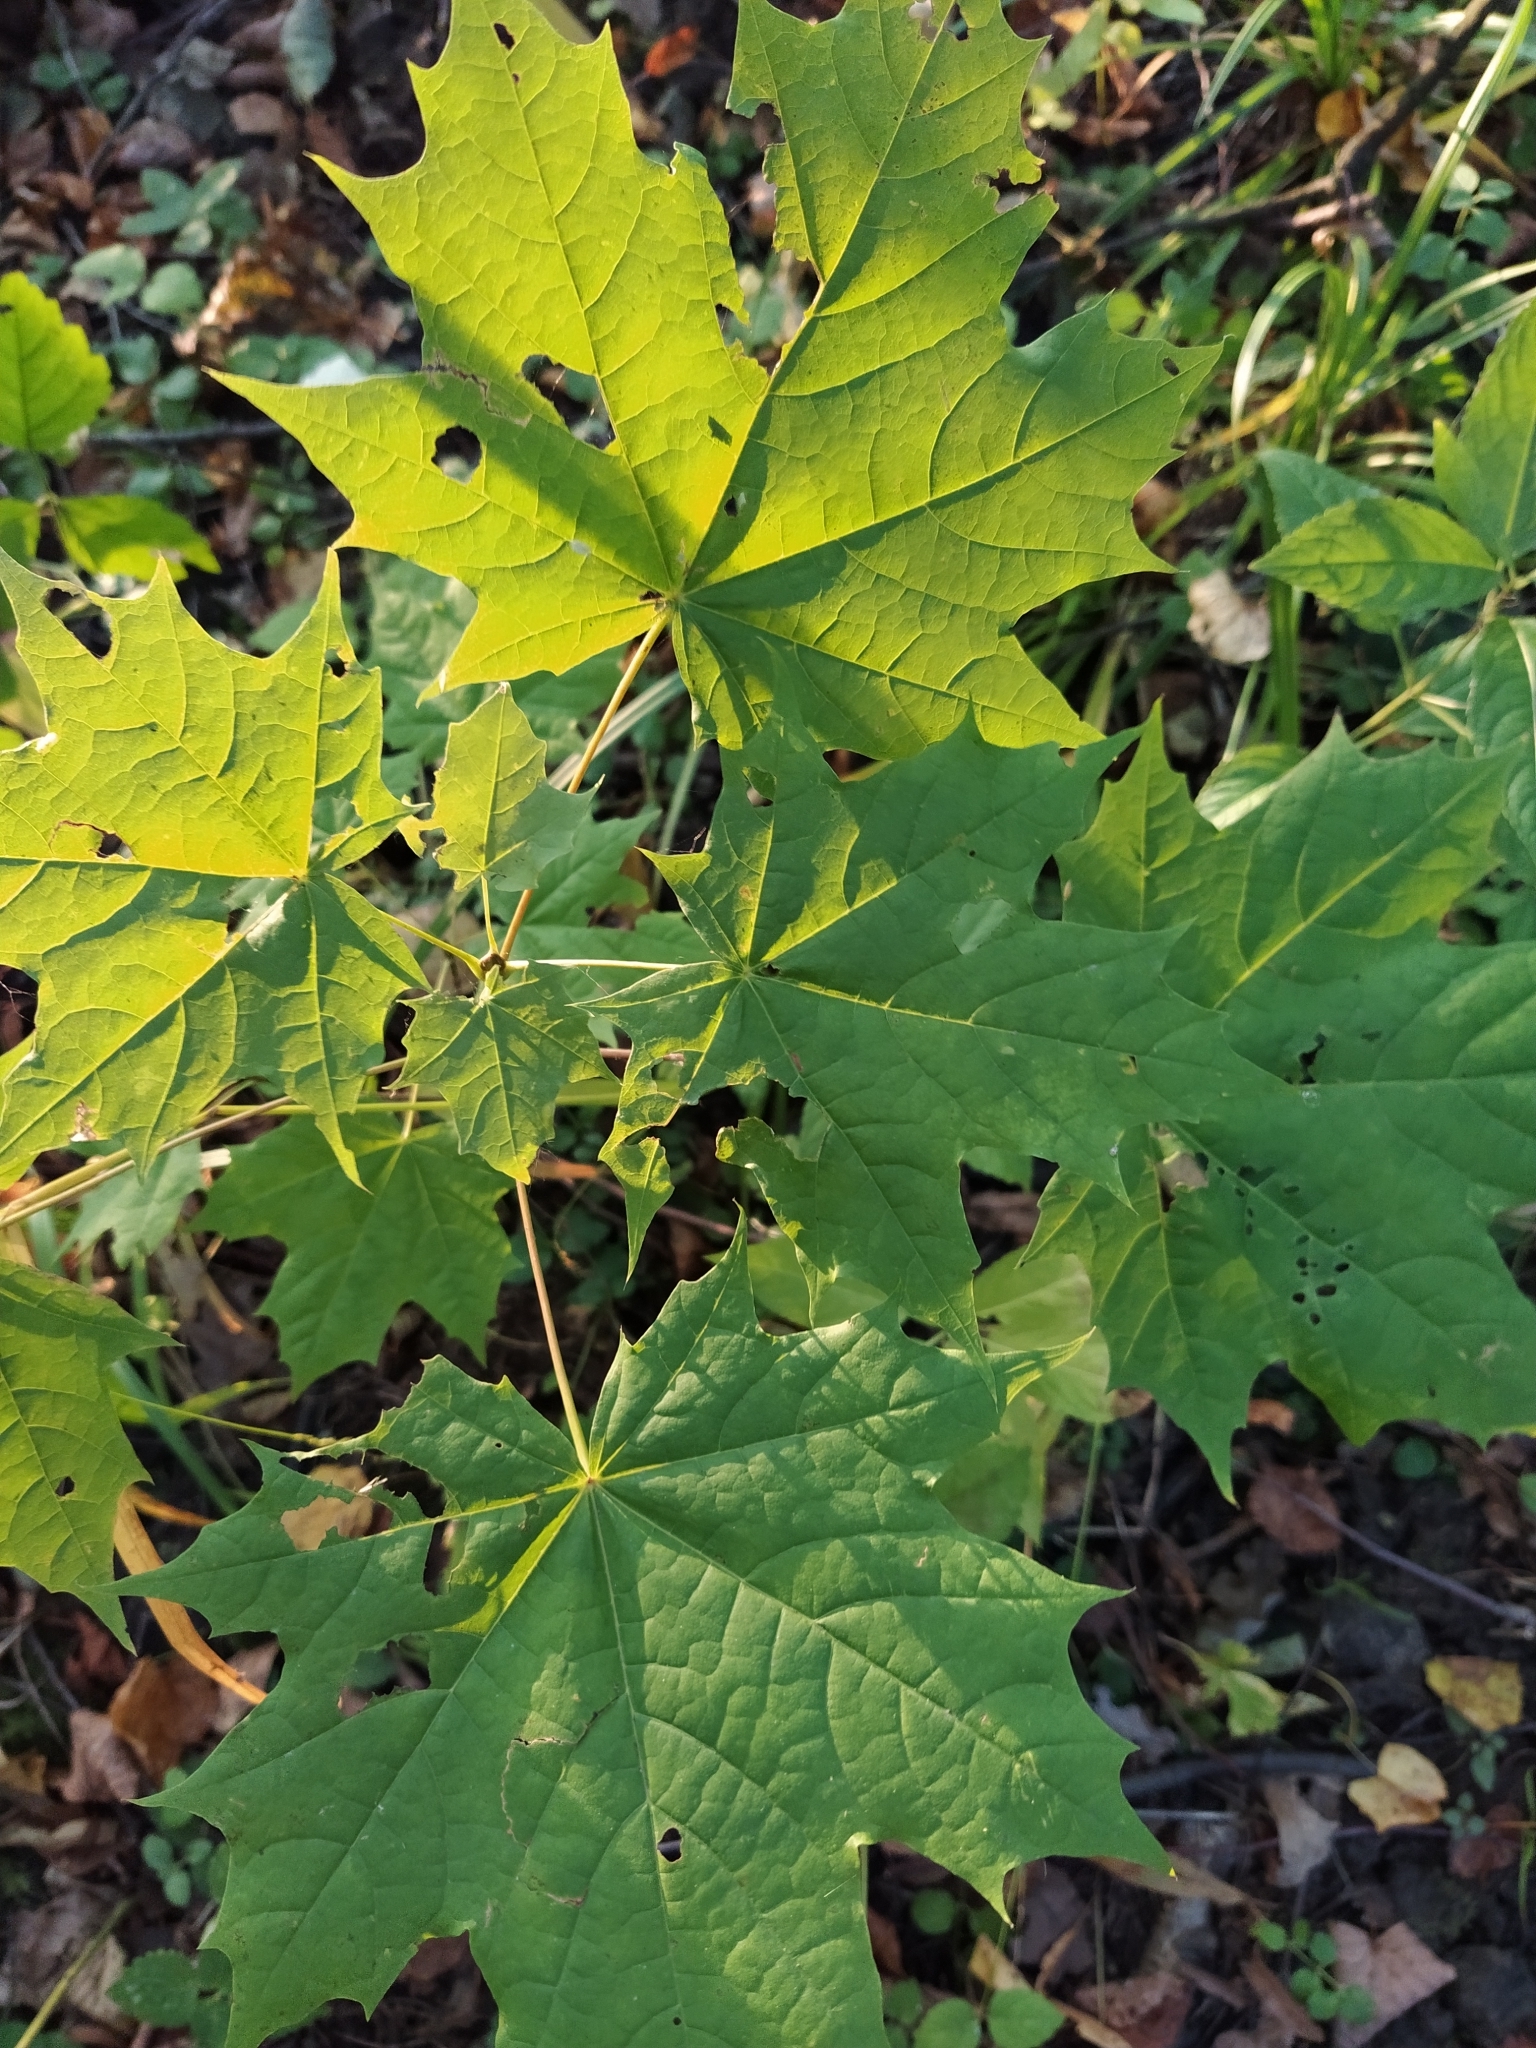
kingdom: Plantae
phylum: Tracheophyta
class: Magnoliopsida
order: Sapindales
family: Sapindaceae
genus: Acer
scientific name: Acer platanoides
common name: Norway maple
